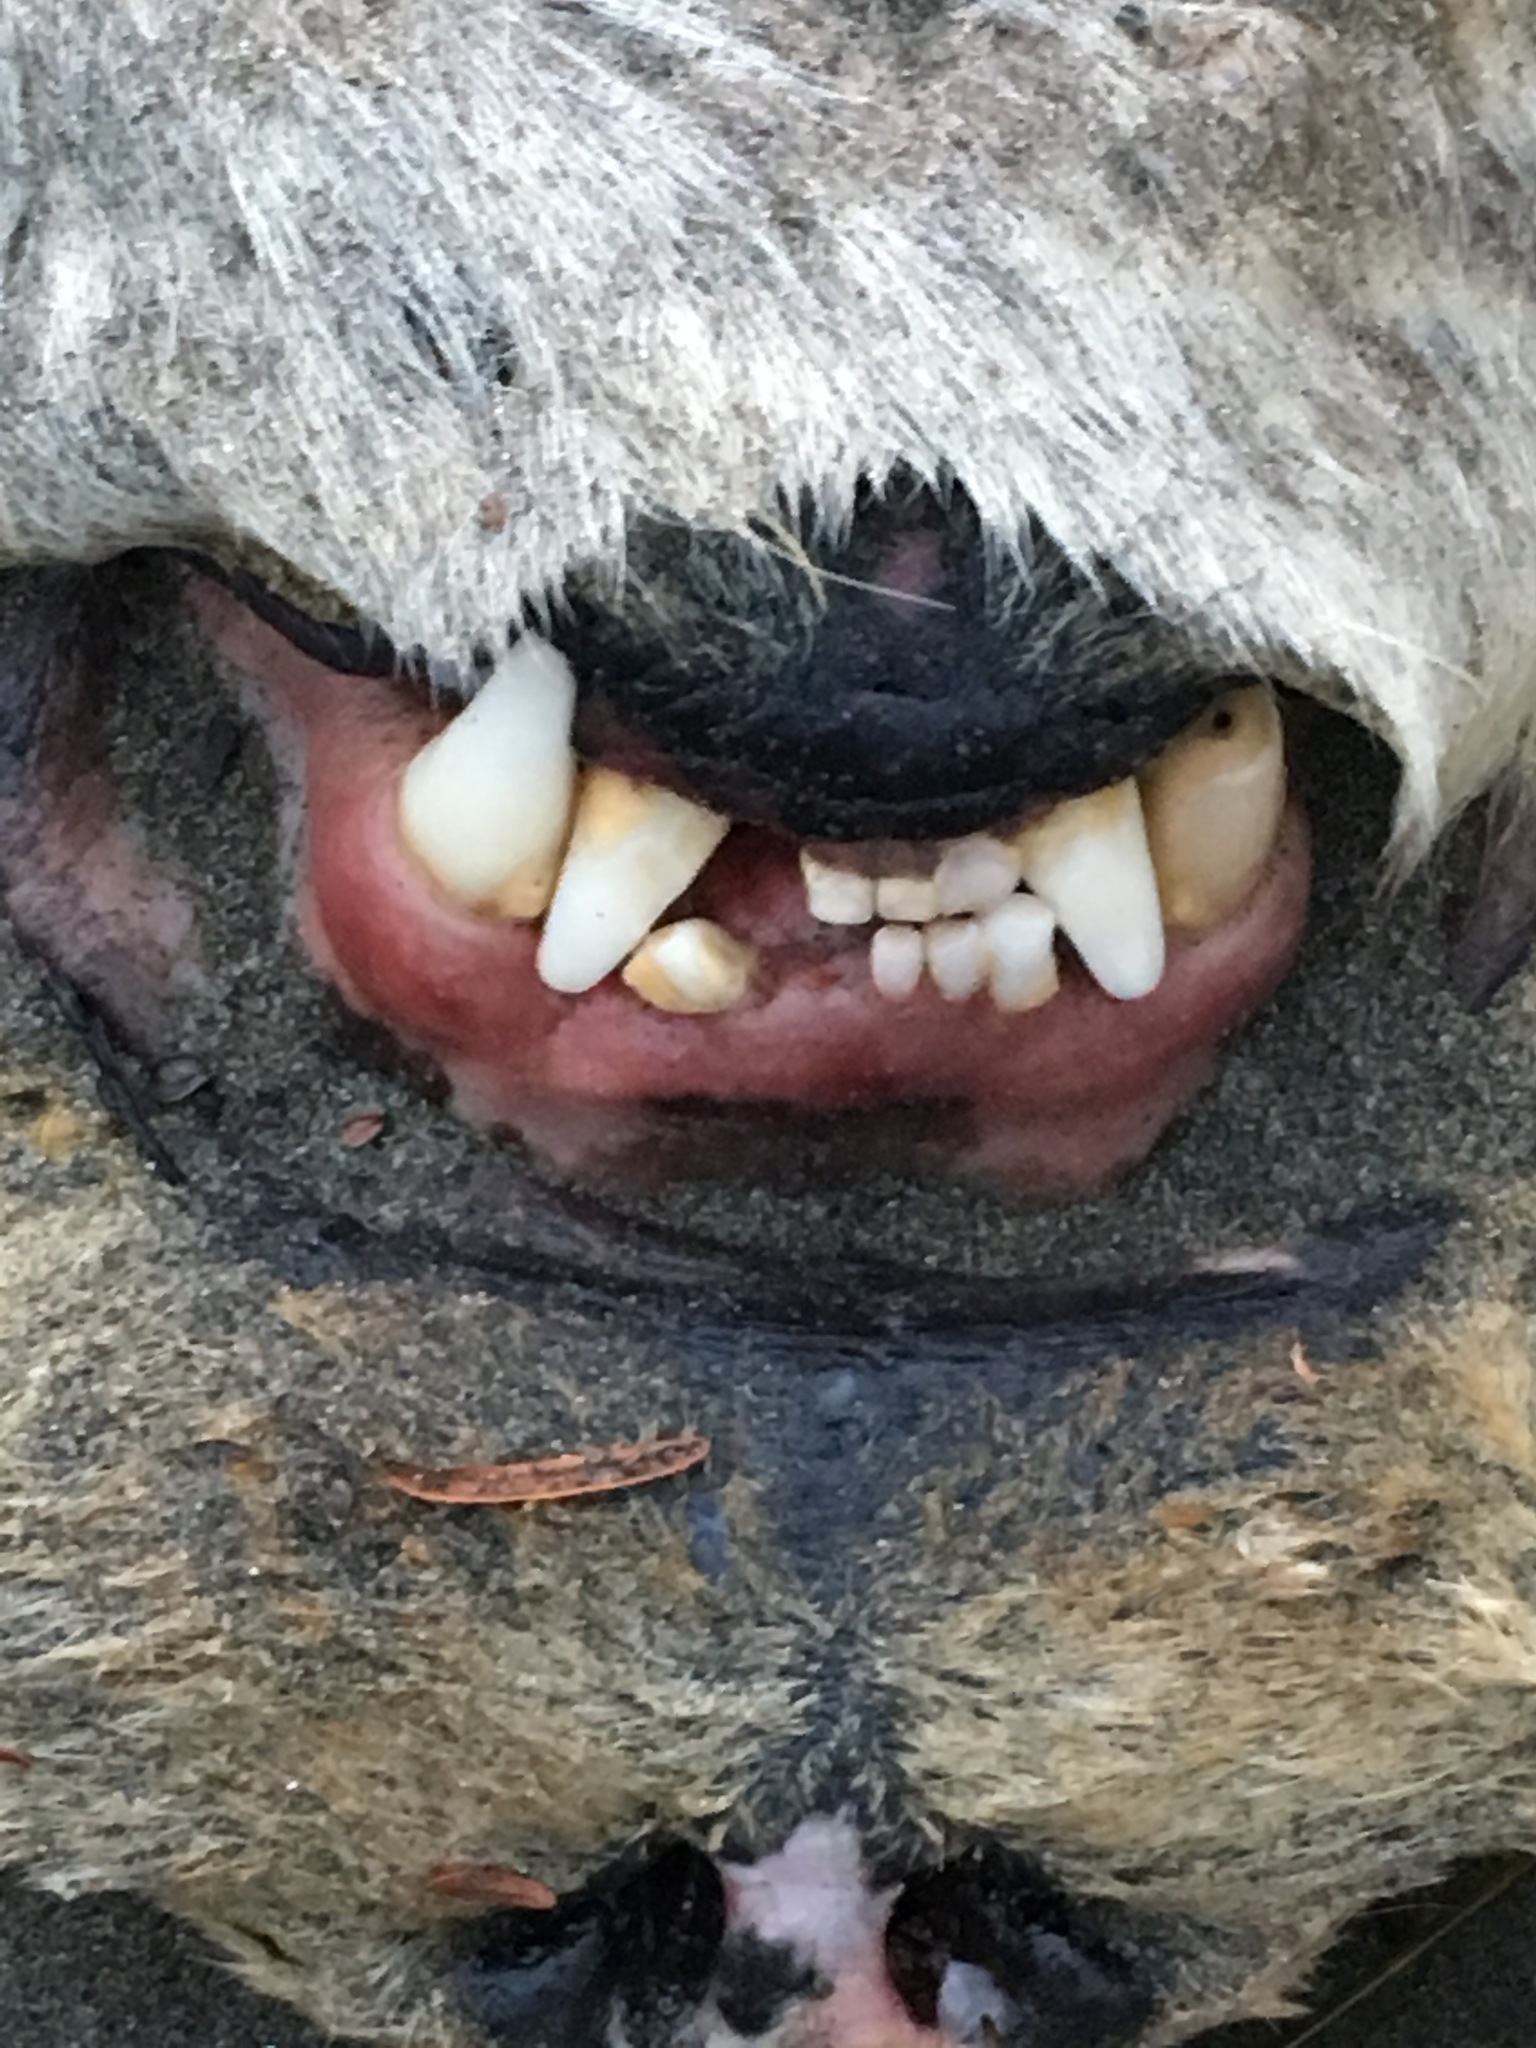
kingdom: Animalia
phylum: Chordata
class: Mammalia
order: Carnivora
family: Mustelidae
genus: Enhydra
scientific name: Enhydra lutris
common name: Sea otter
